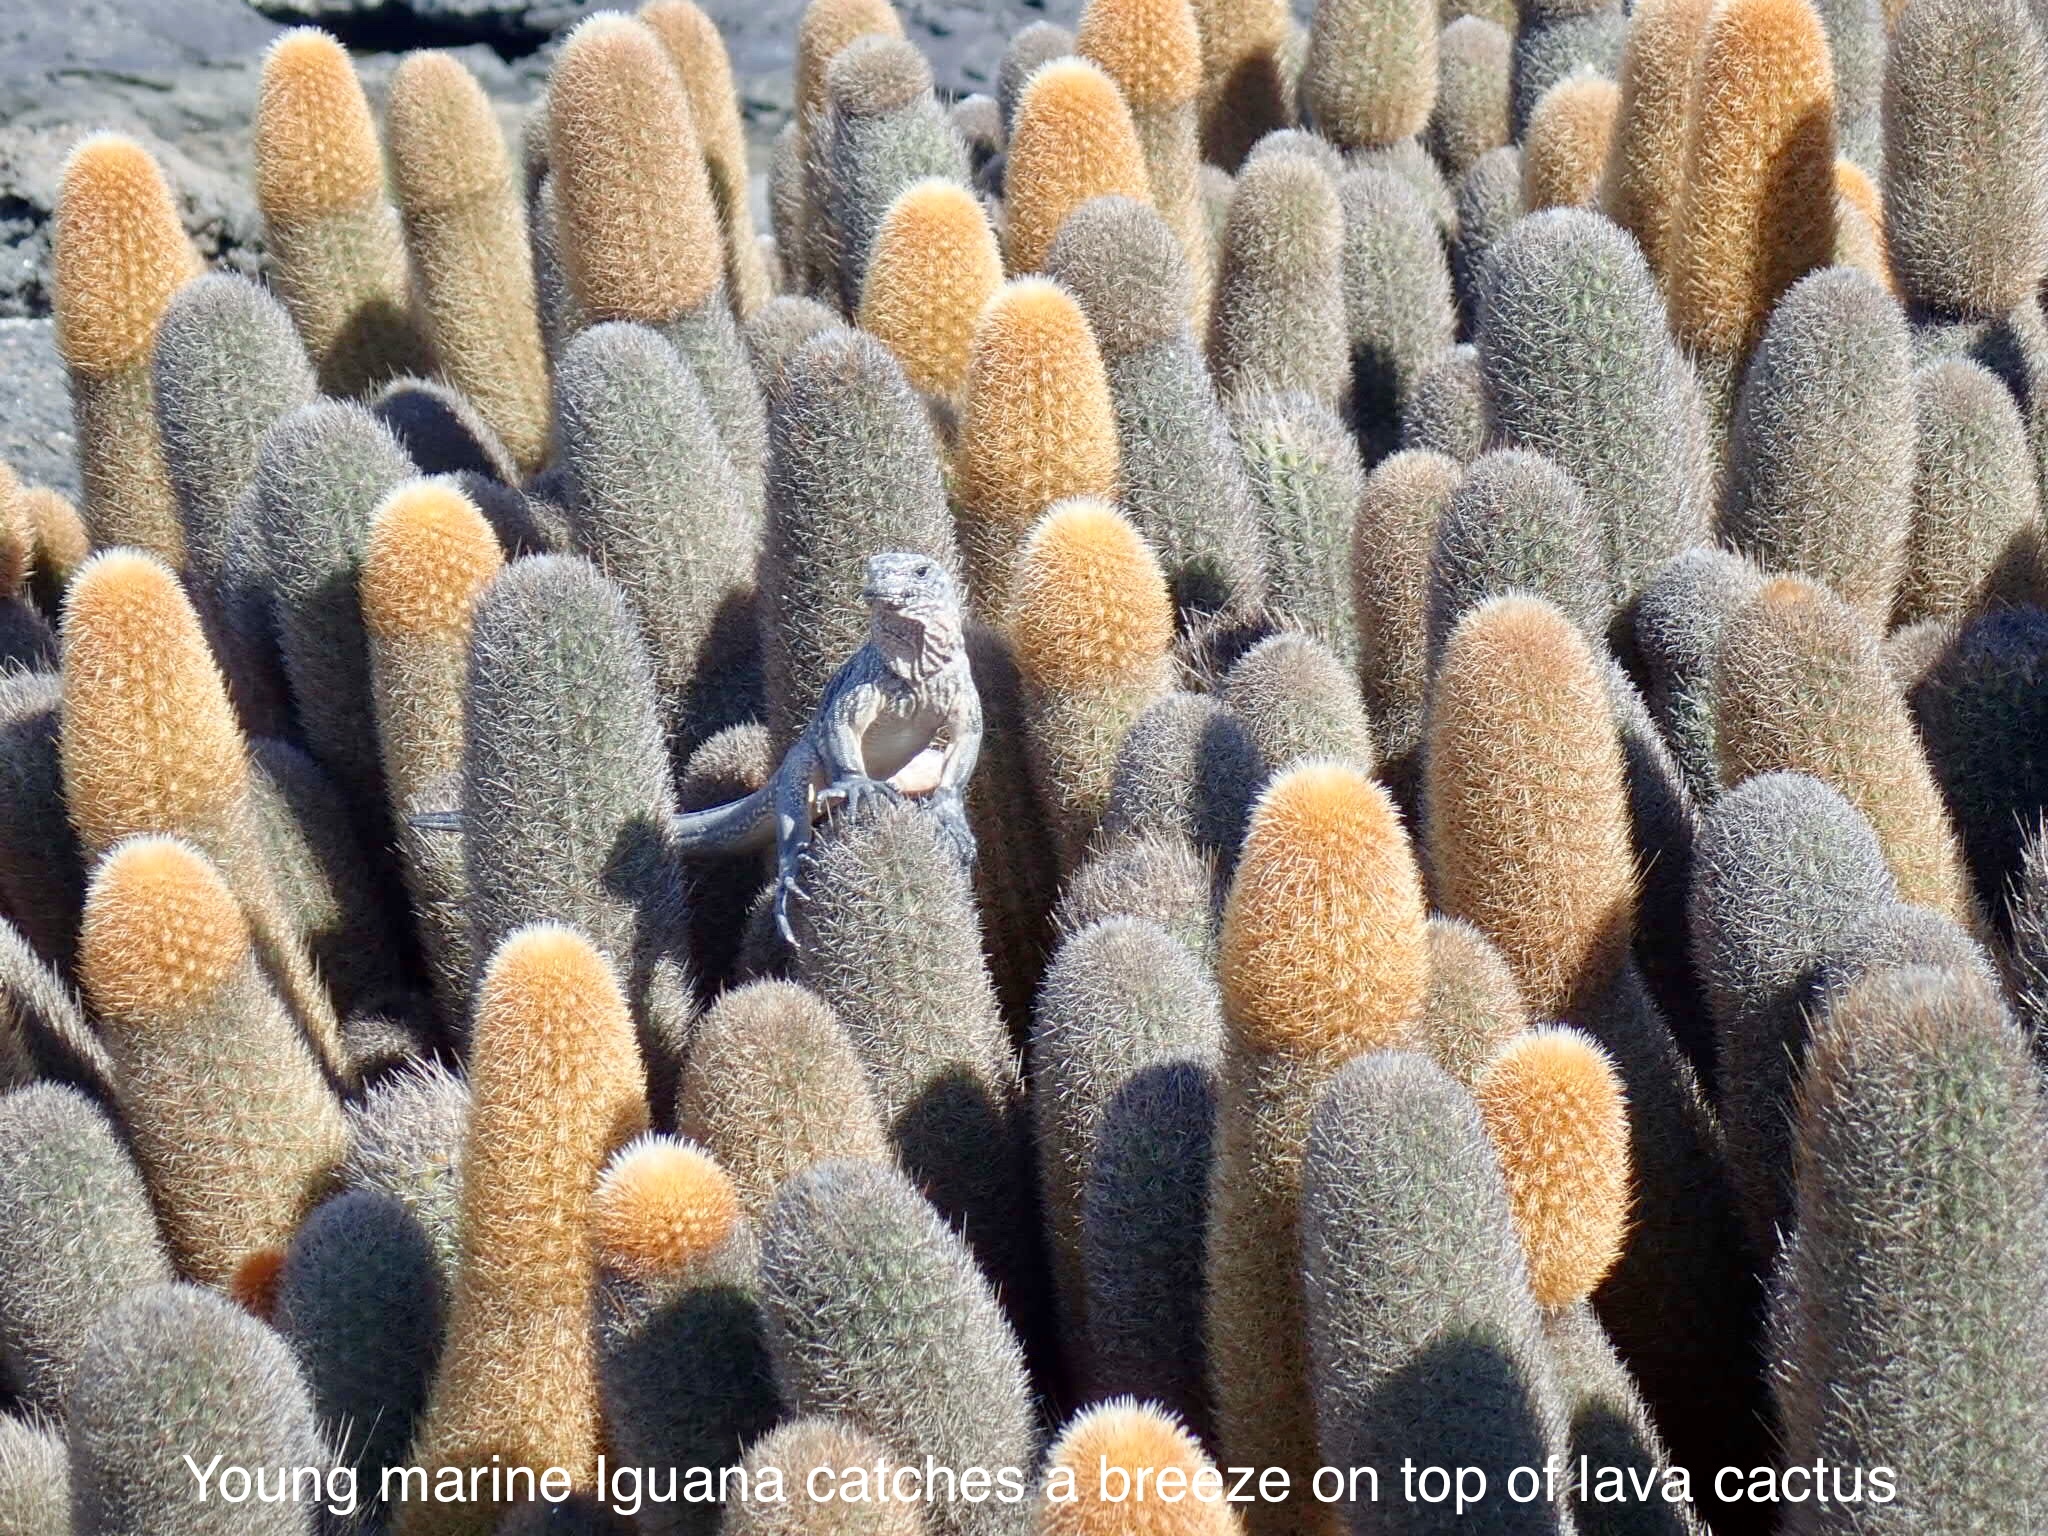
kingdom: Animalia
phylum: Chordata
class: Squamata
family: Iguanidae
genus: Amblyrhynchus
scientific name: Amblyrhynchus cristatus
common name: Marine iguana
